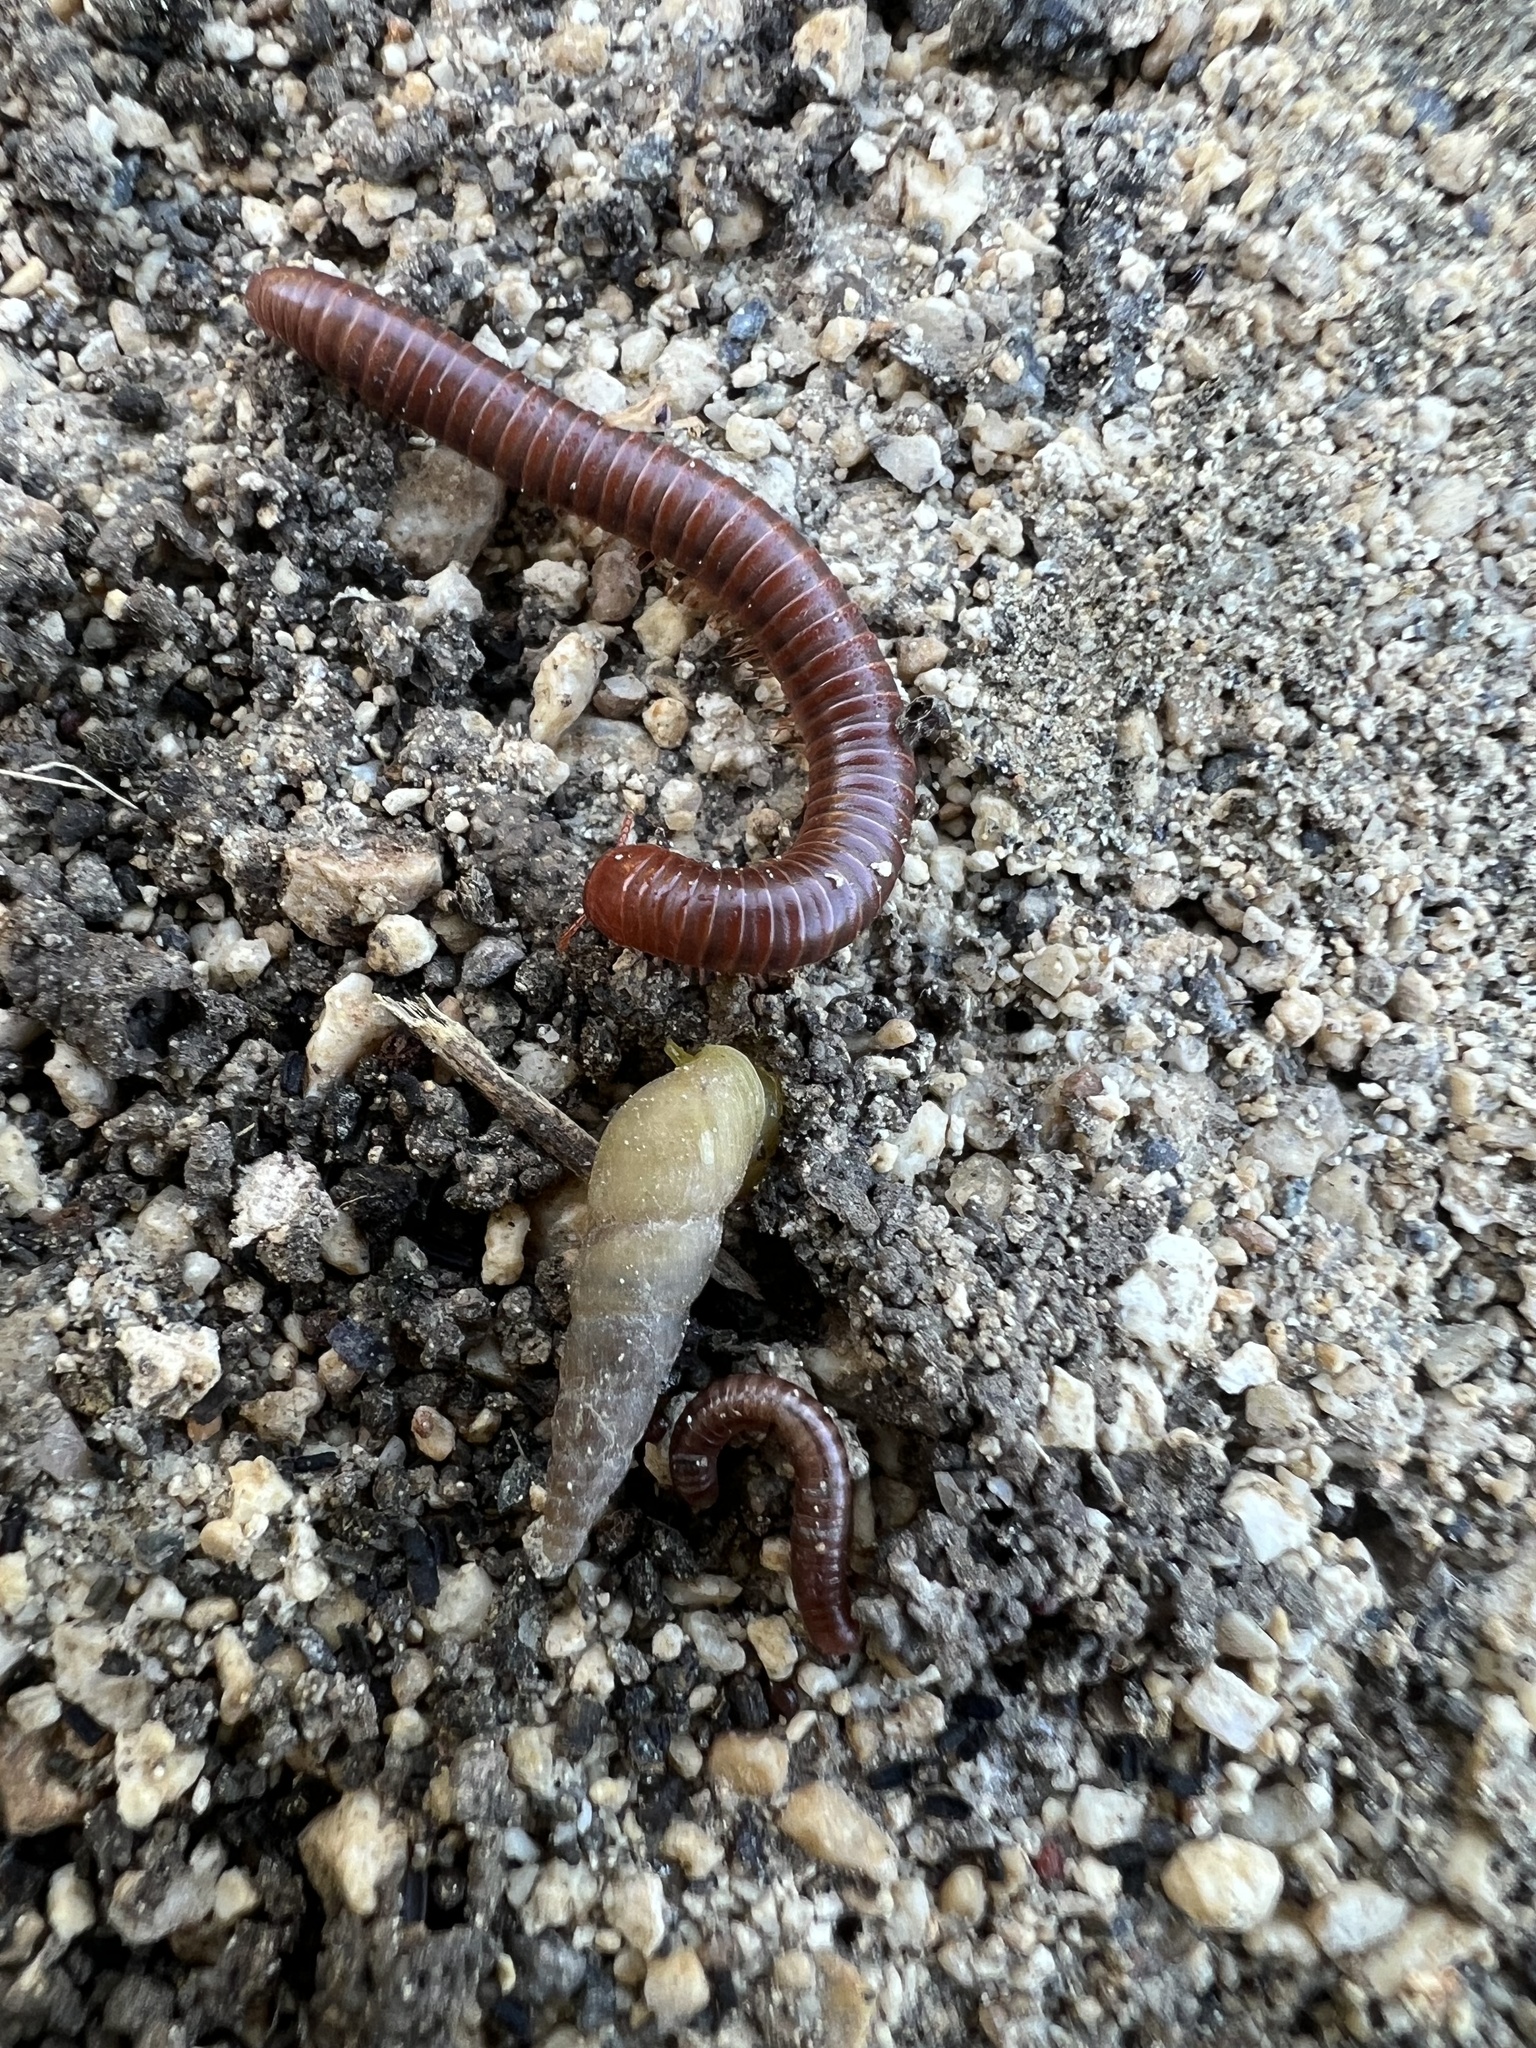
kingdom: Animalia
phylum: Arthropoda
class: Diplopoda
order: Spirobolida
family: Pachybolidae
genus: Trigoniulus
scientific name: Trigoniulus corallinus
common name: Millipede
